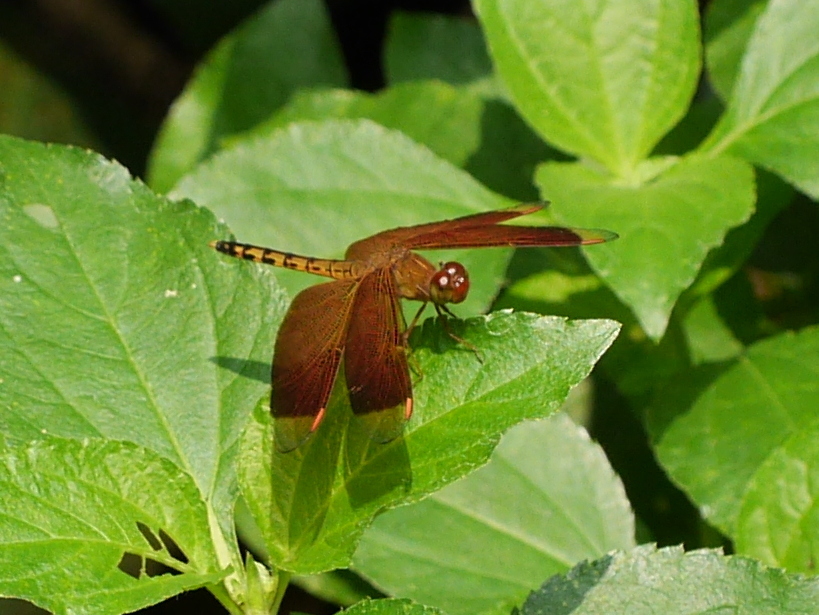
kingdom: Animalia
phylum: Arthropoda
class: Insecta
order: Odonata
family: Libellulidae
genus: Neurothemis
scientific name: Neurothemis terminata
